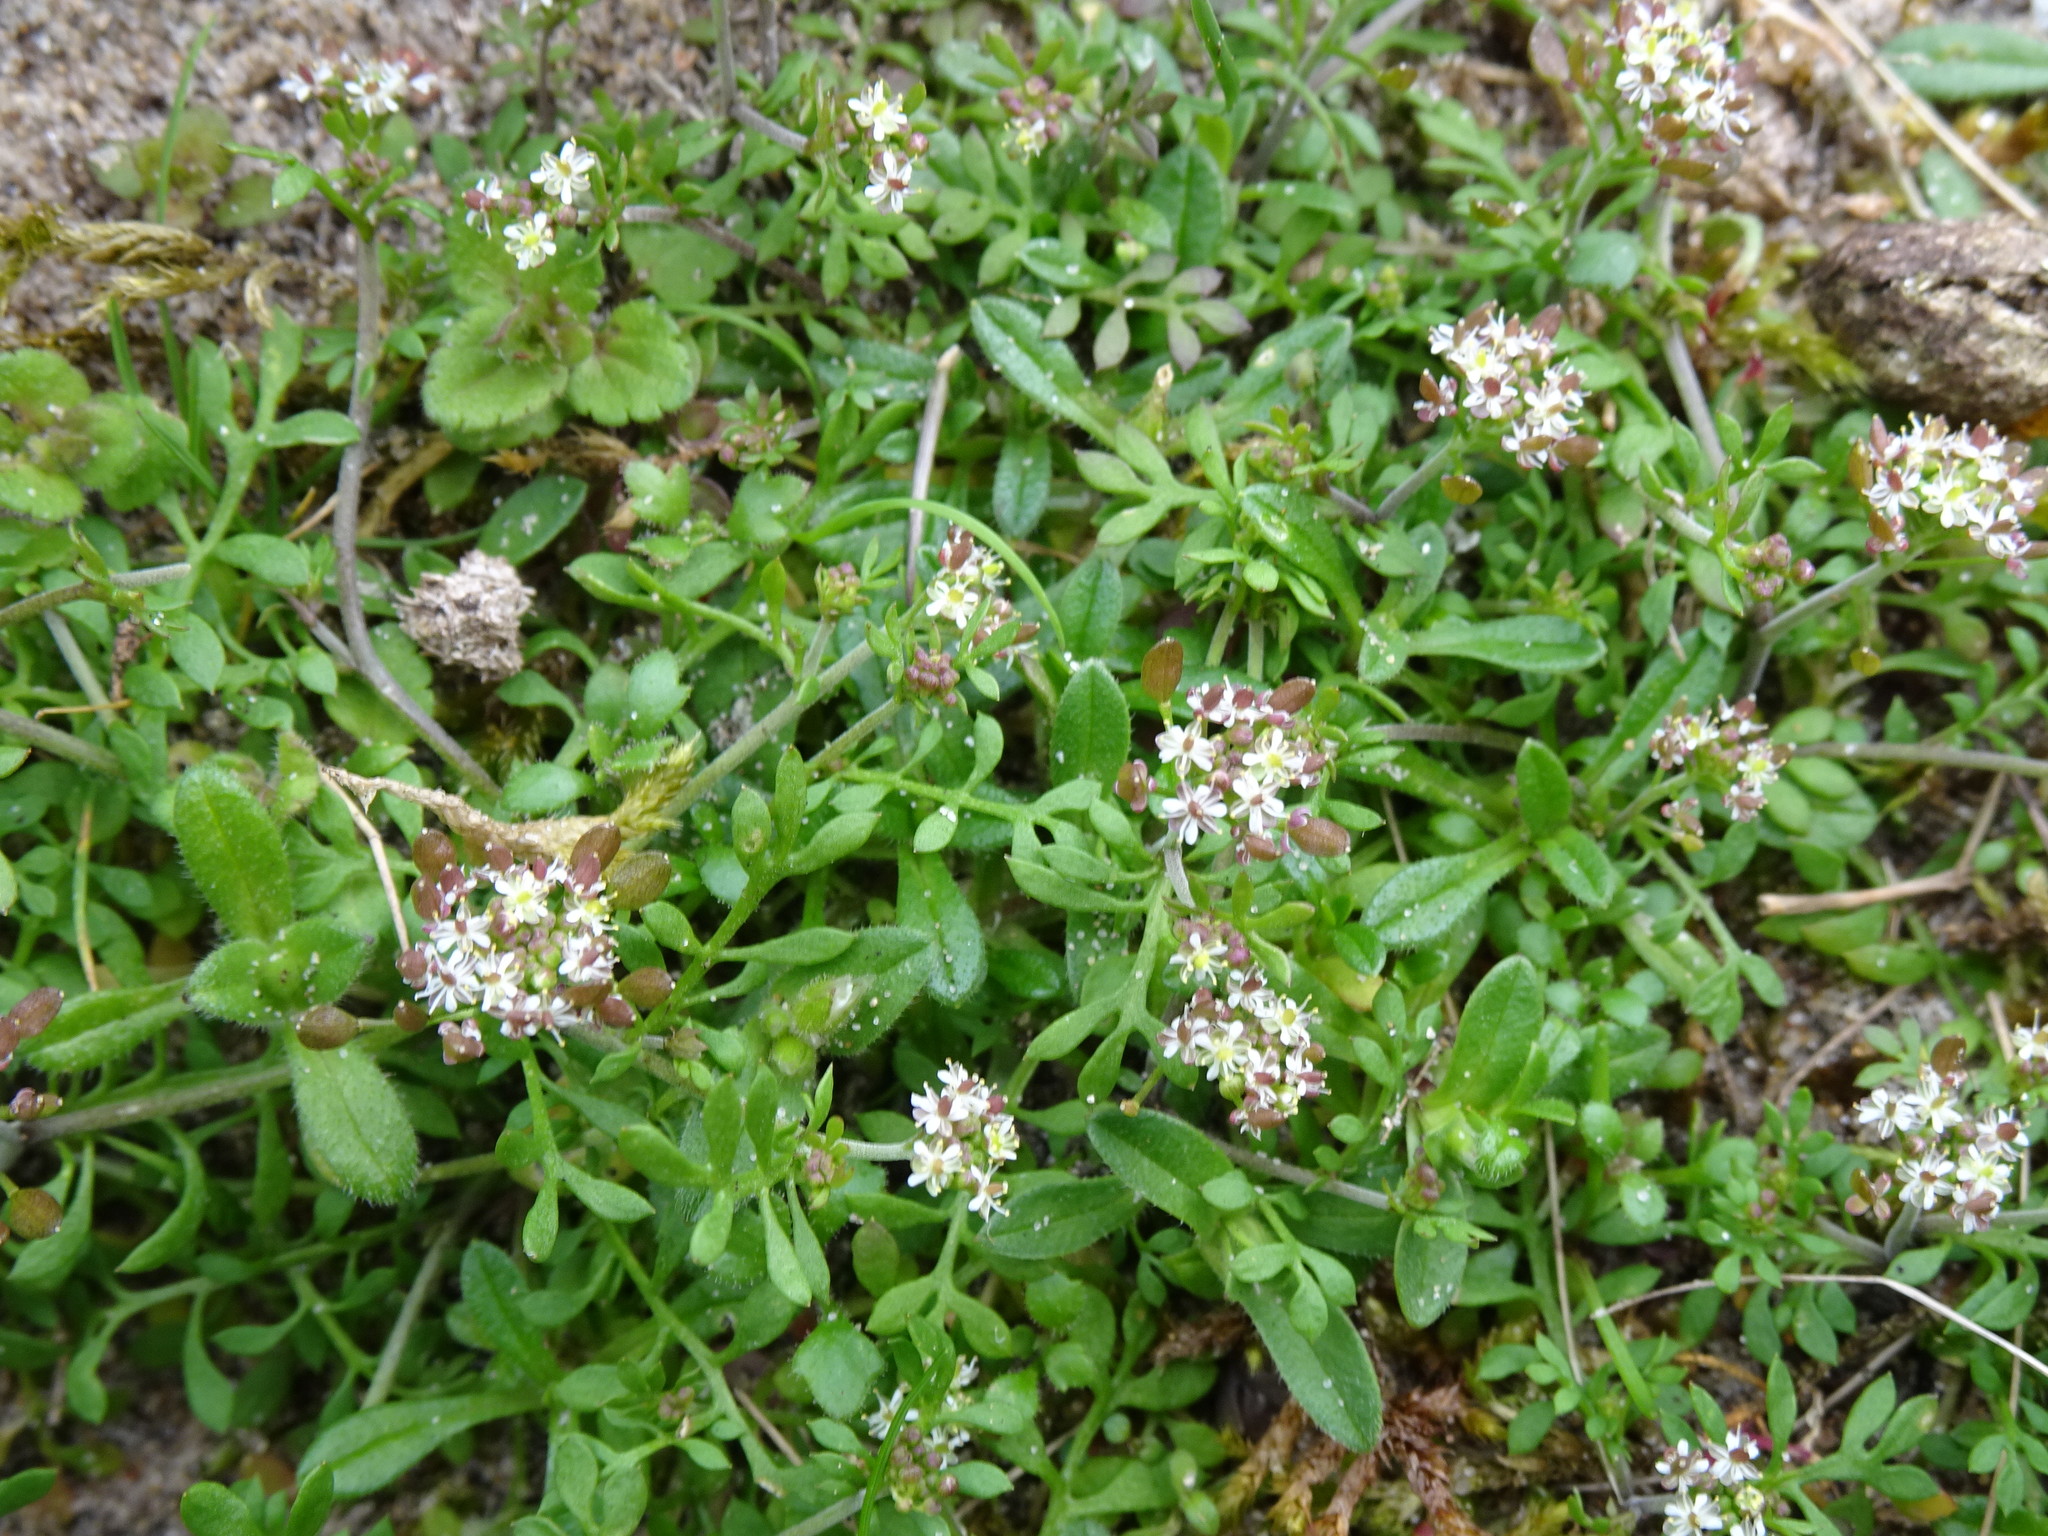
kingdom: Plantae
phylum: Tracheophyta
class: Magnoliopsida
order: Brassicales
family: Brassicaceae
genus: Hornungia
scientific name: Hornungia petraea
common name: Hutchinsia
